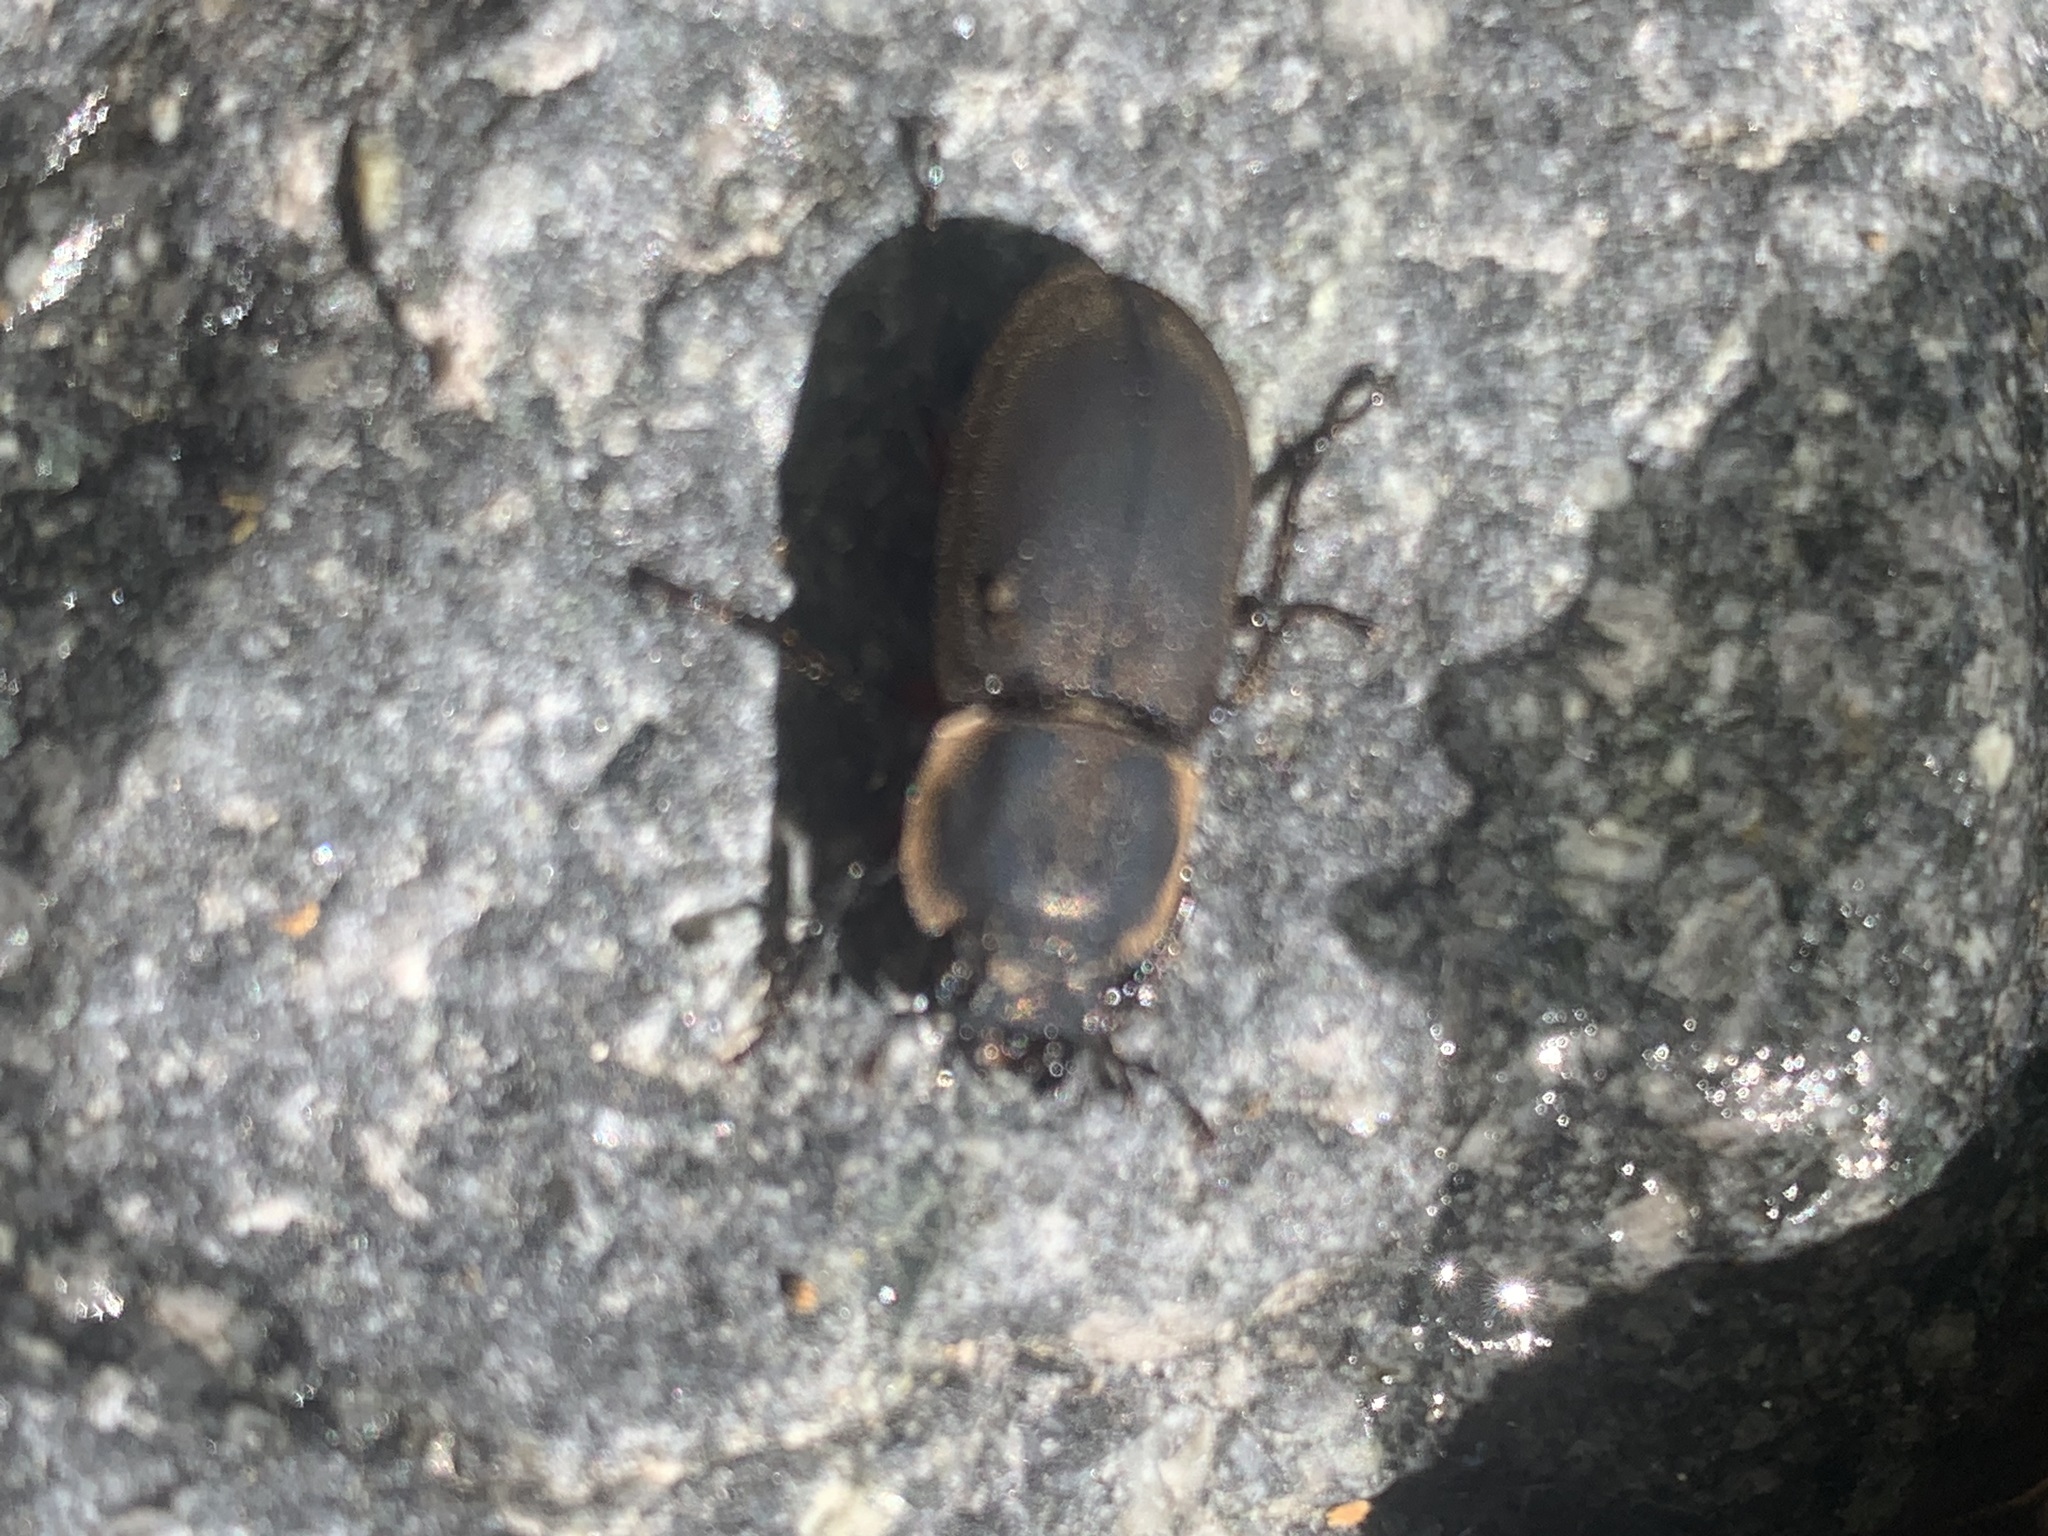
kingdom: Animalia
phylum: Arthropoda
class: Insecta
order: Coleoptera
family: Lucanidae
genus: Erichius
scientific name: Erichius femoralis
